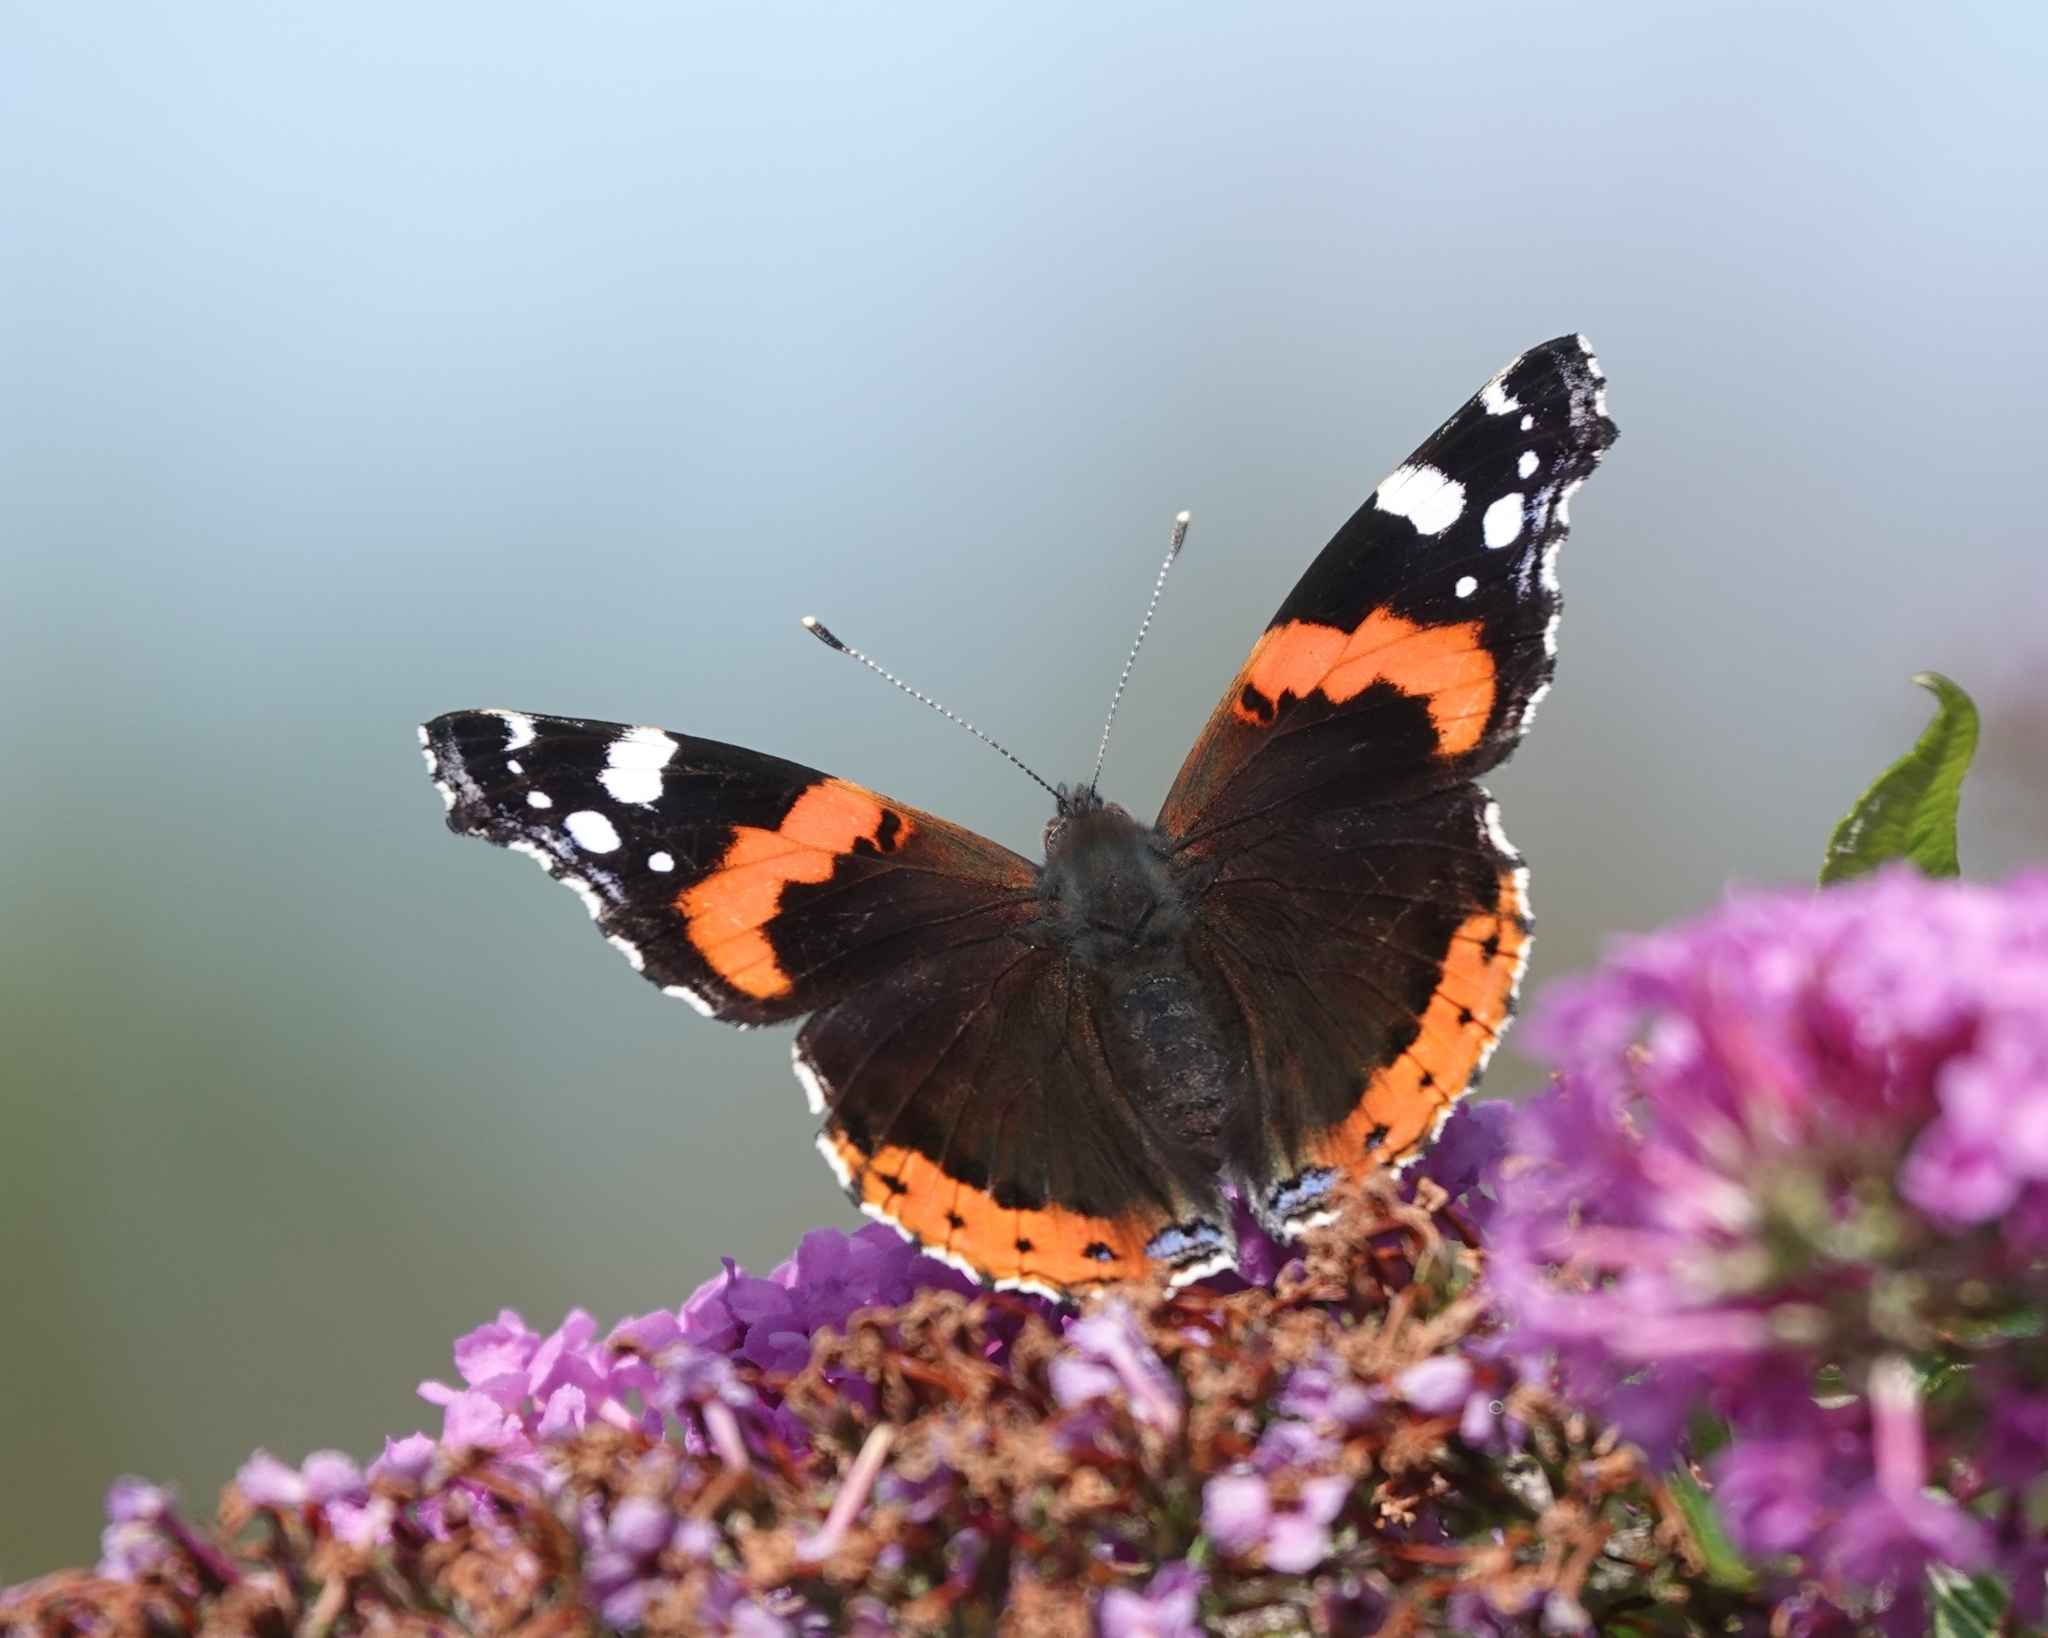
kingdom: Animalia
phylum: Arthropoda
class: Insecta
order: Lepidoptera
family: Nymphalidae
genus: Vanessa
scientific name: Vanessa atalanta
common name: Red admiral
